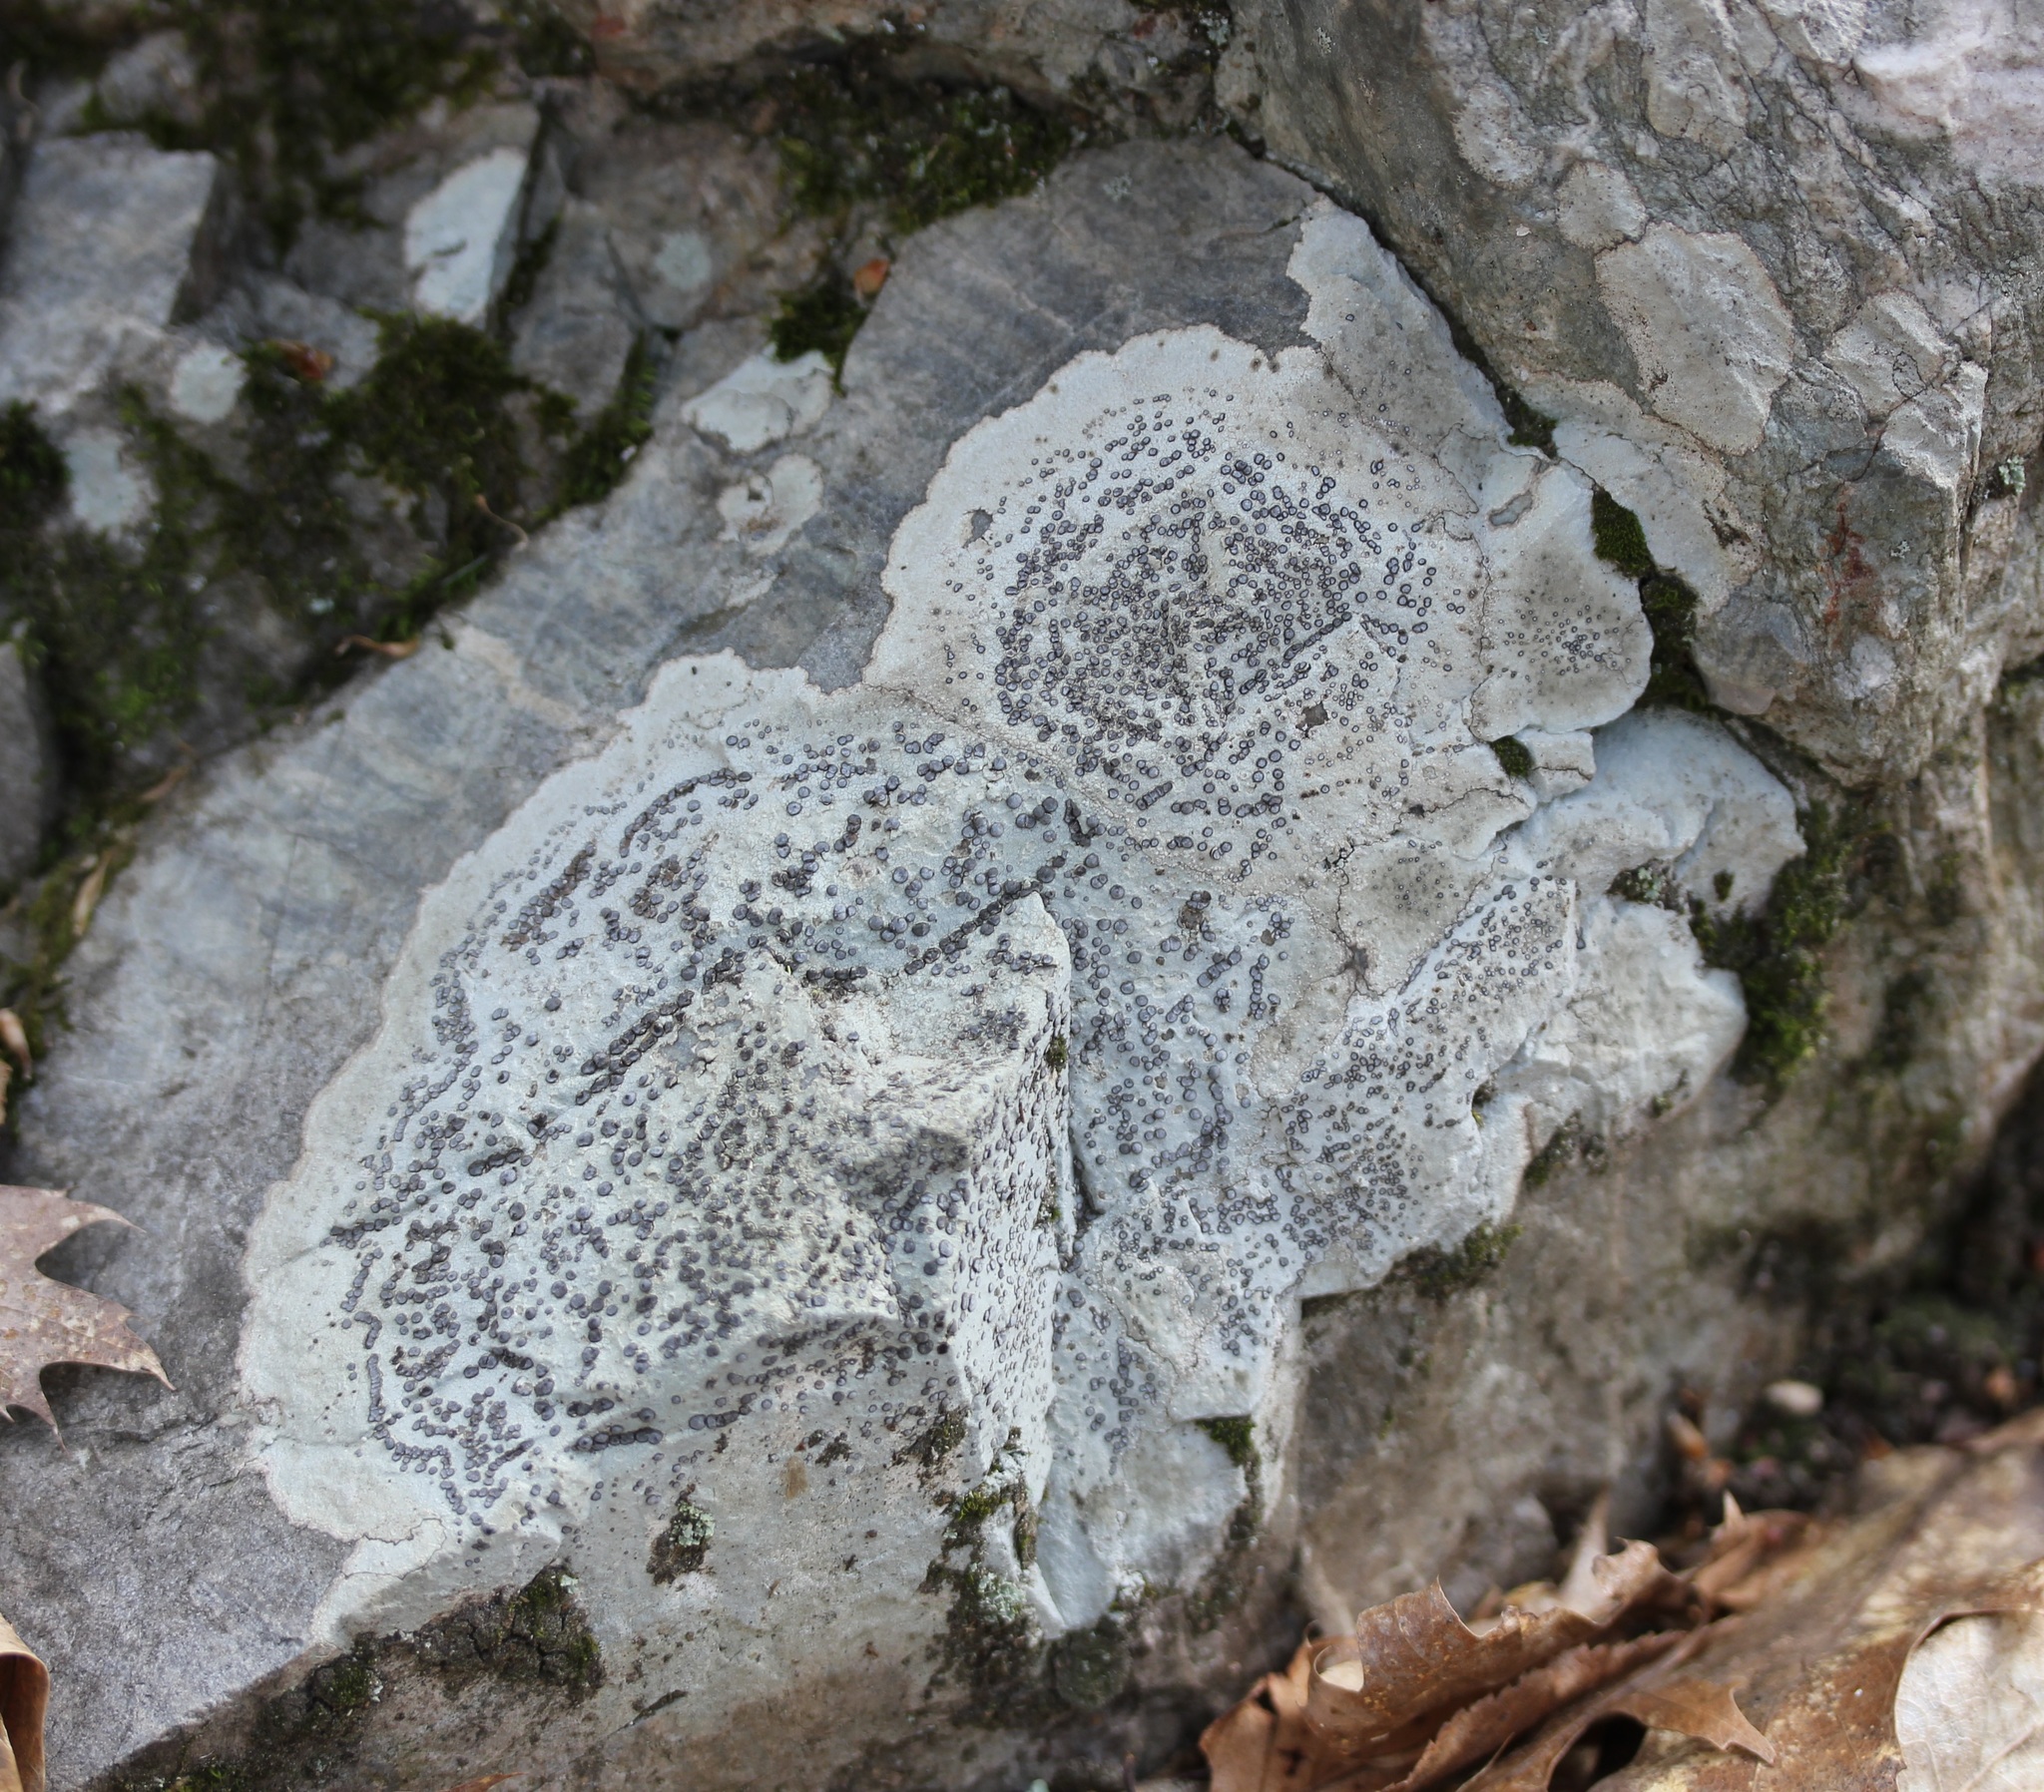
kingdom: Fungi
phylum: Ascomycota
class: Lecanoromycetes
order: Lecideales
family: Lecideaceae
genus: Porpidia
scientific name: Porpidia albocaerulescens
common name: Smokey-eyed boulder lichen
